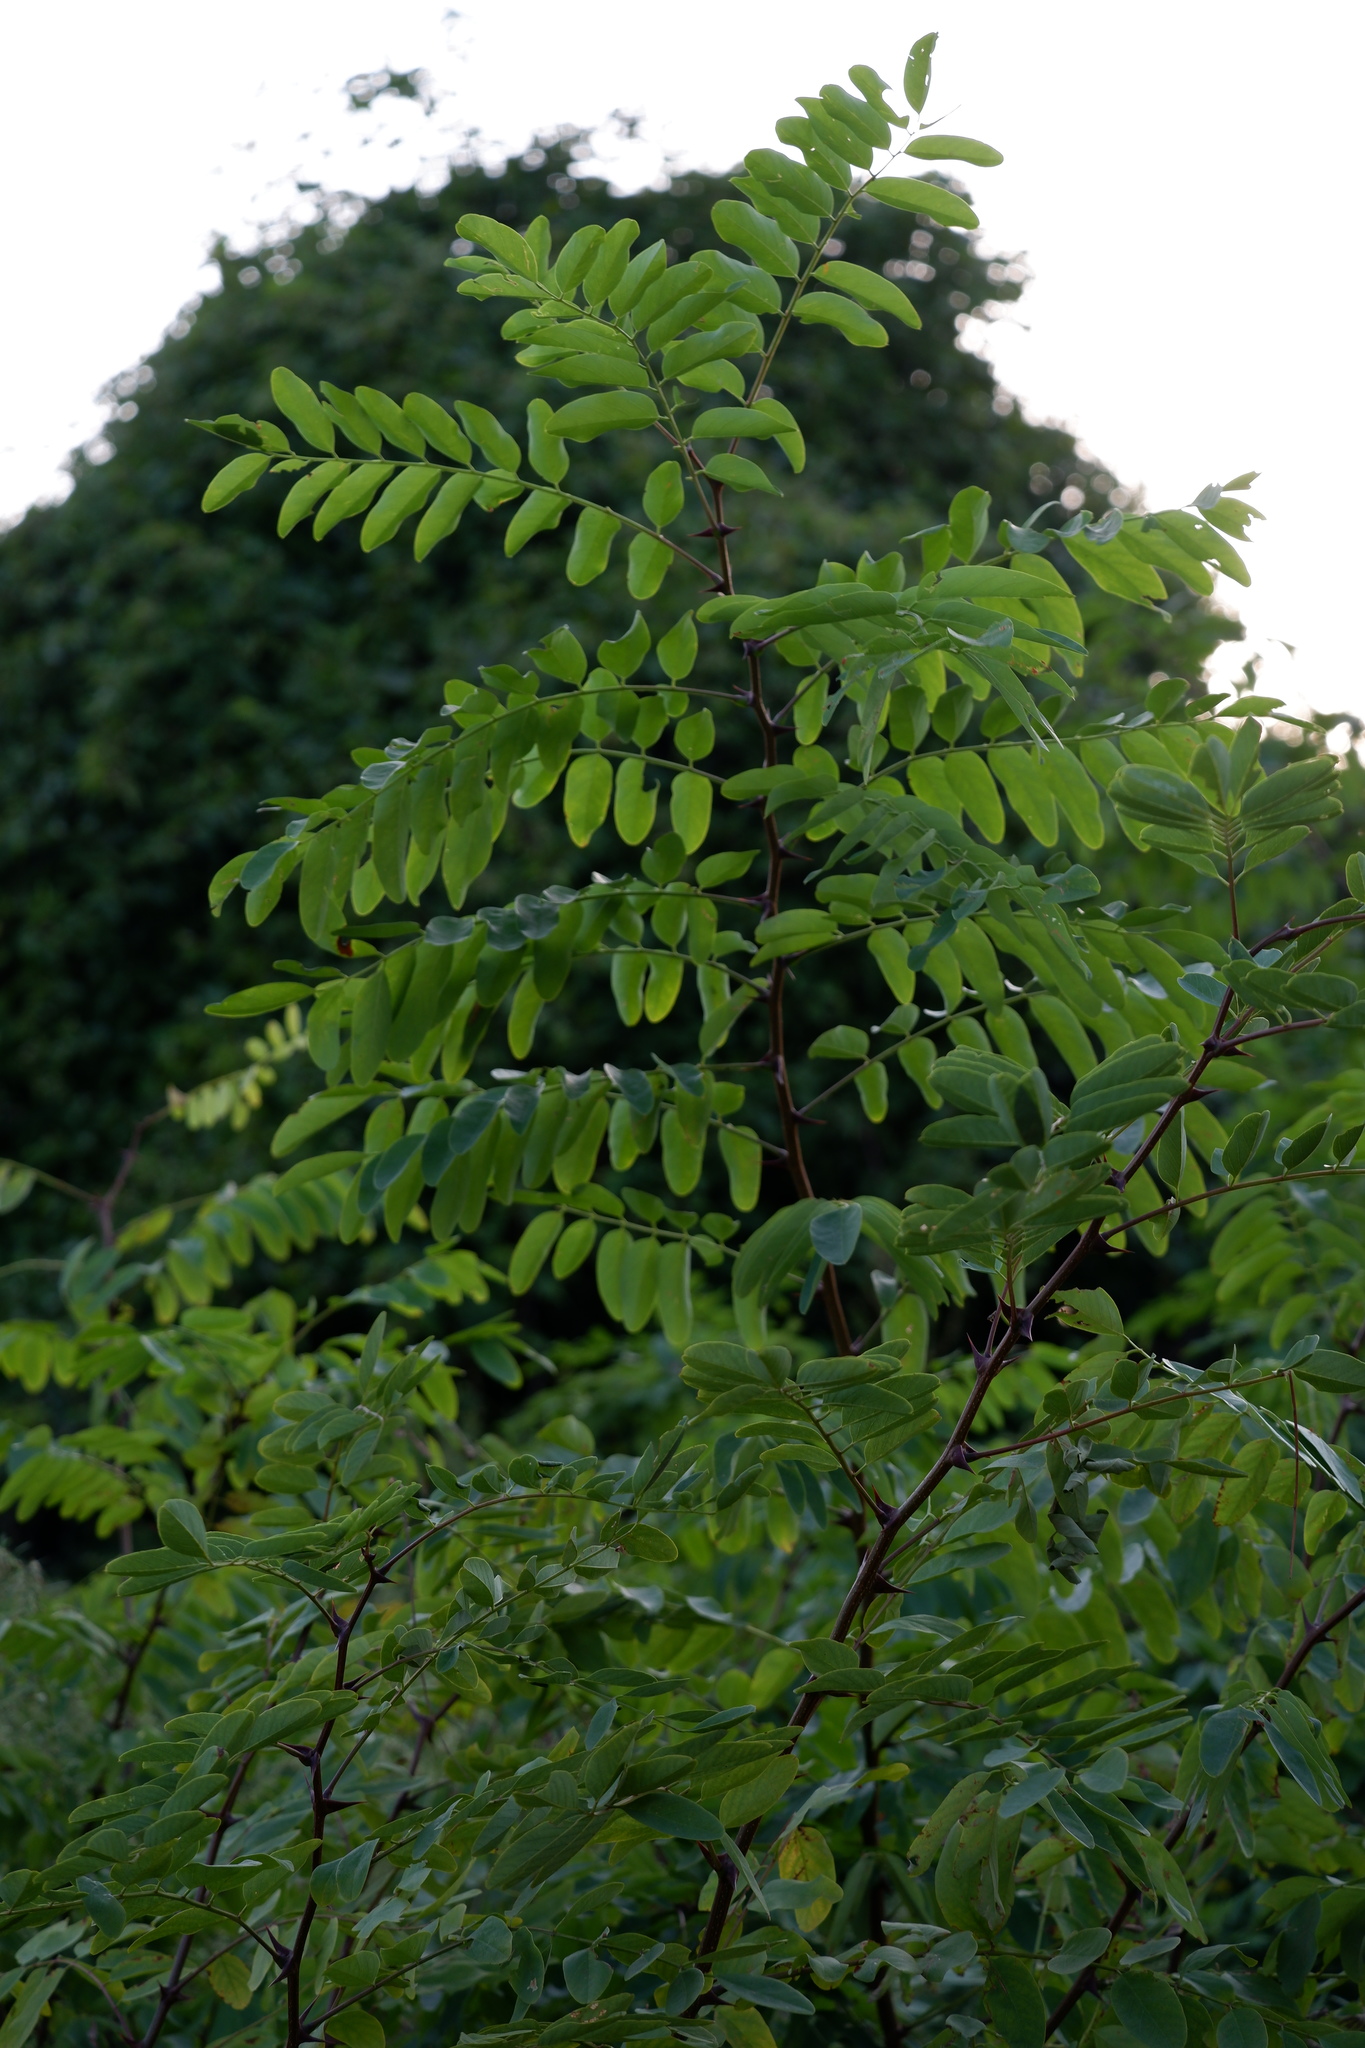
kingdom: Plantae
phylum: Tracheophyta
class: Magnoliopsida
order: Fabales
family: Fabaceae
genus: Robinia
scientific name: Robinia pseudoacacia
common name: Black locust
